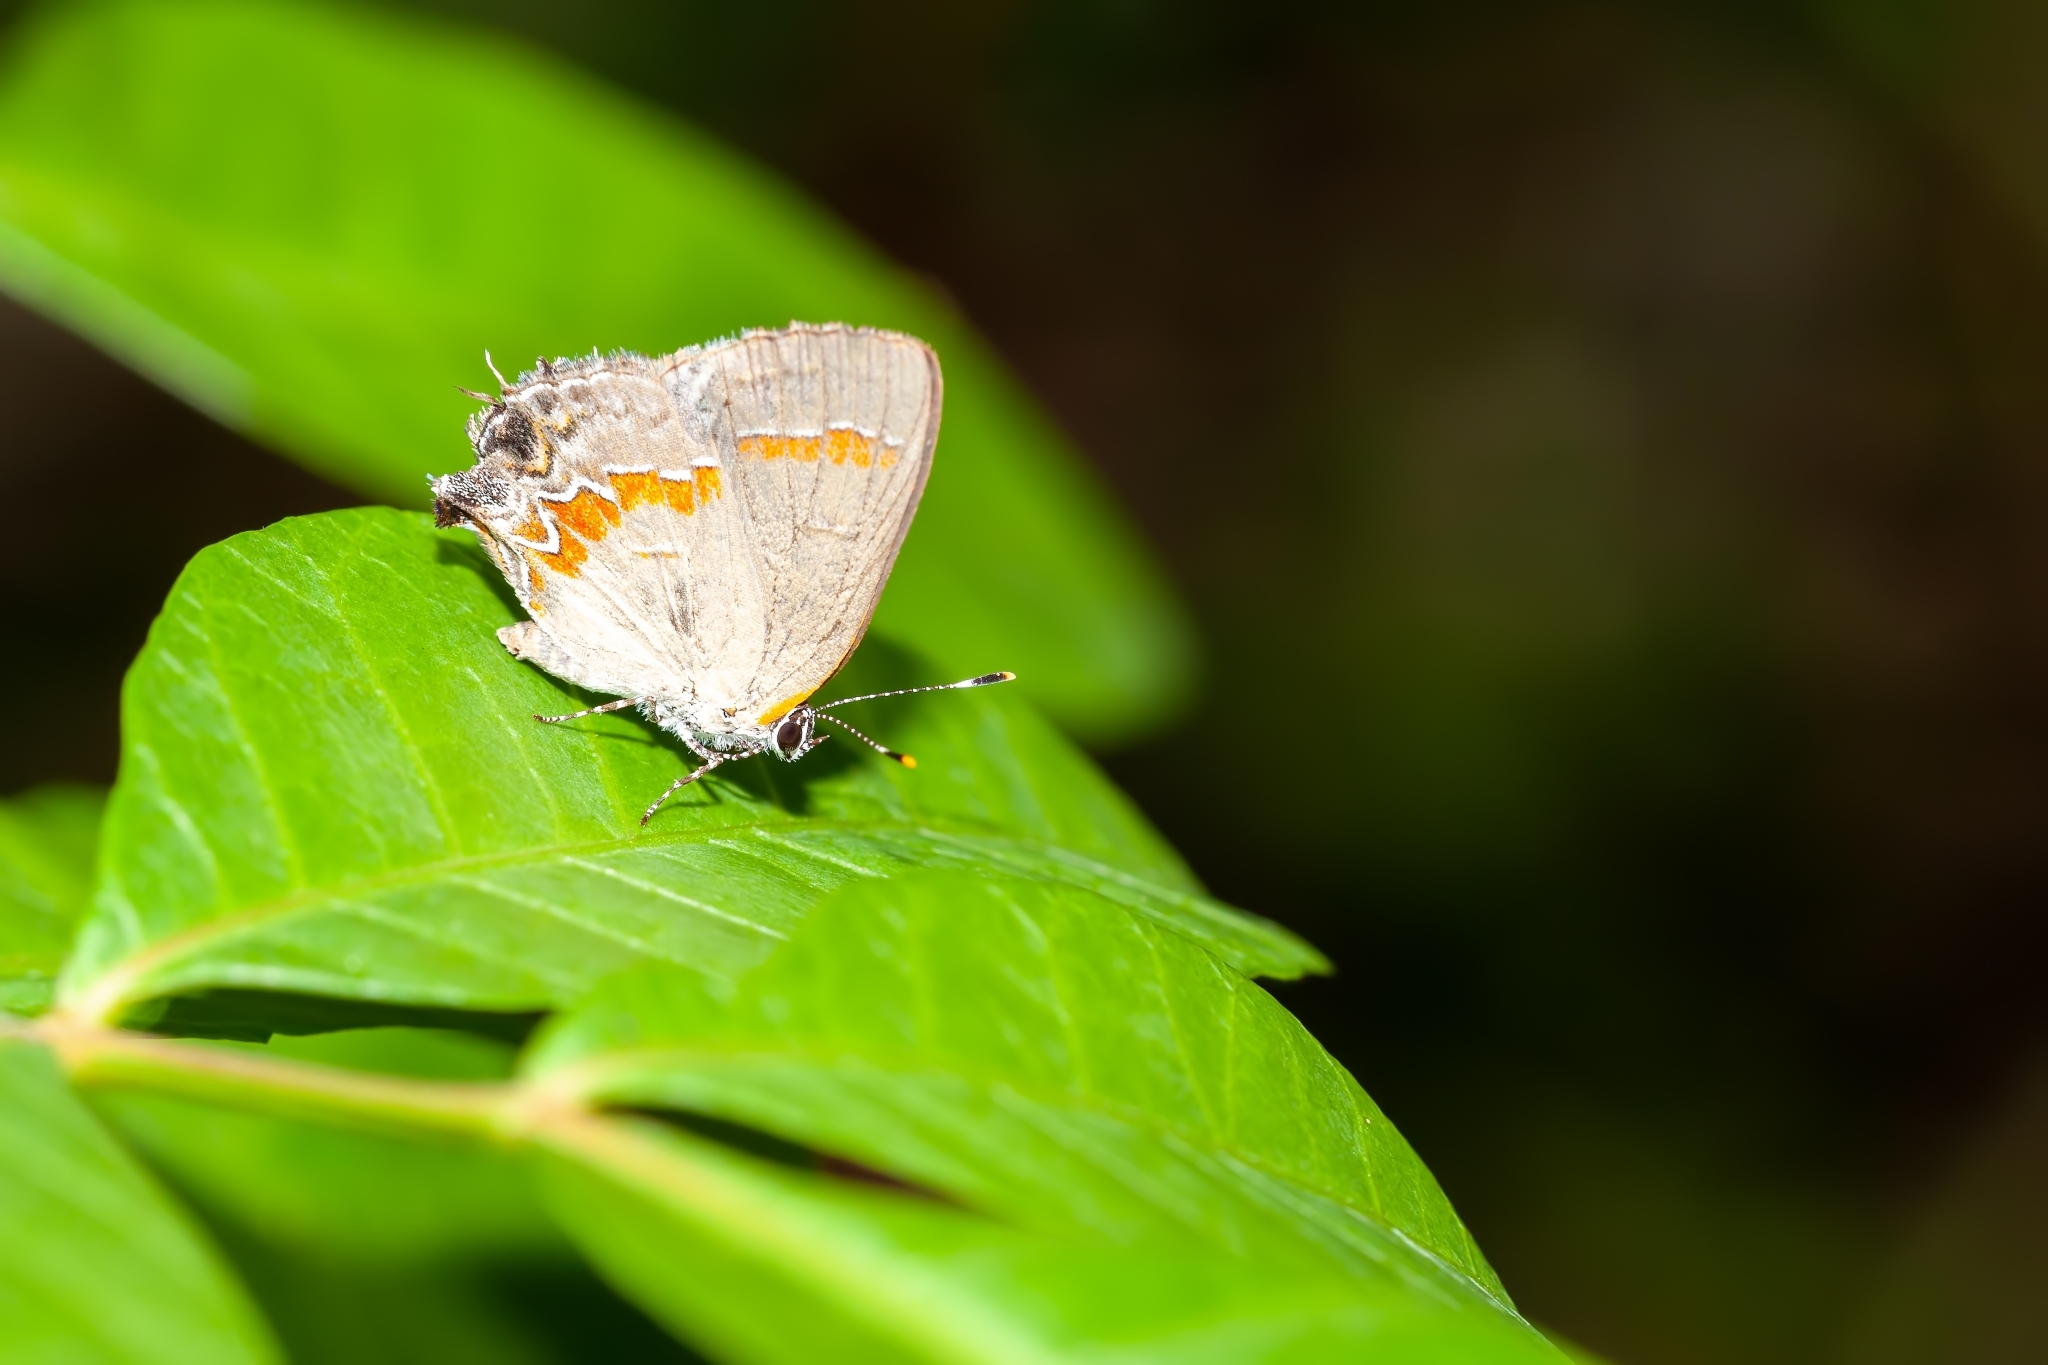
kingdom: Animalia
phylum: Arthropoda
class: Insecta
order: Lepidoptera
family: Lycaenidae
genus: Calycopis
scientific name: Calycopis cecrops
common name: Red-banded hairstreak
